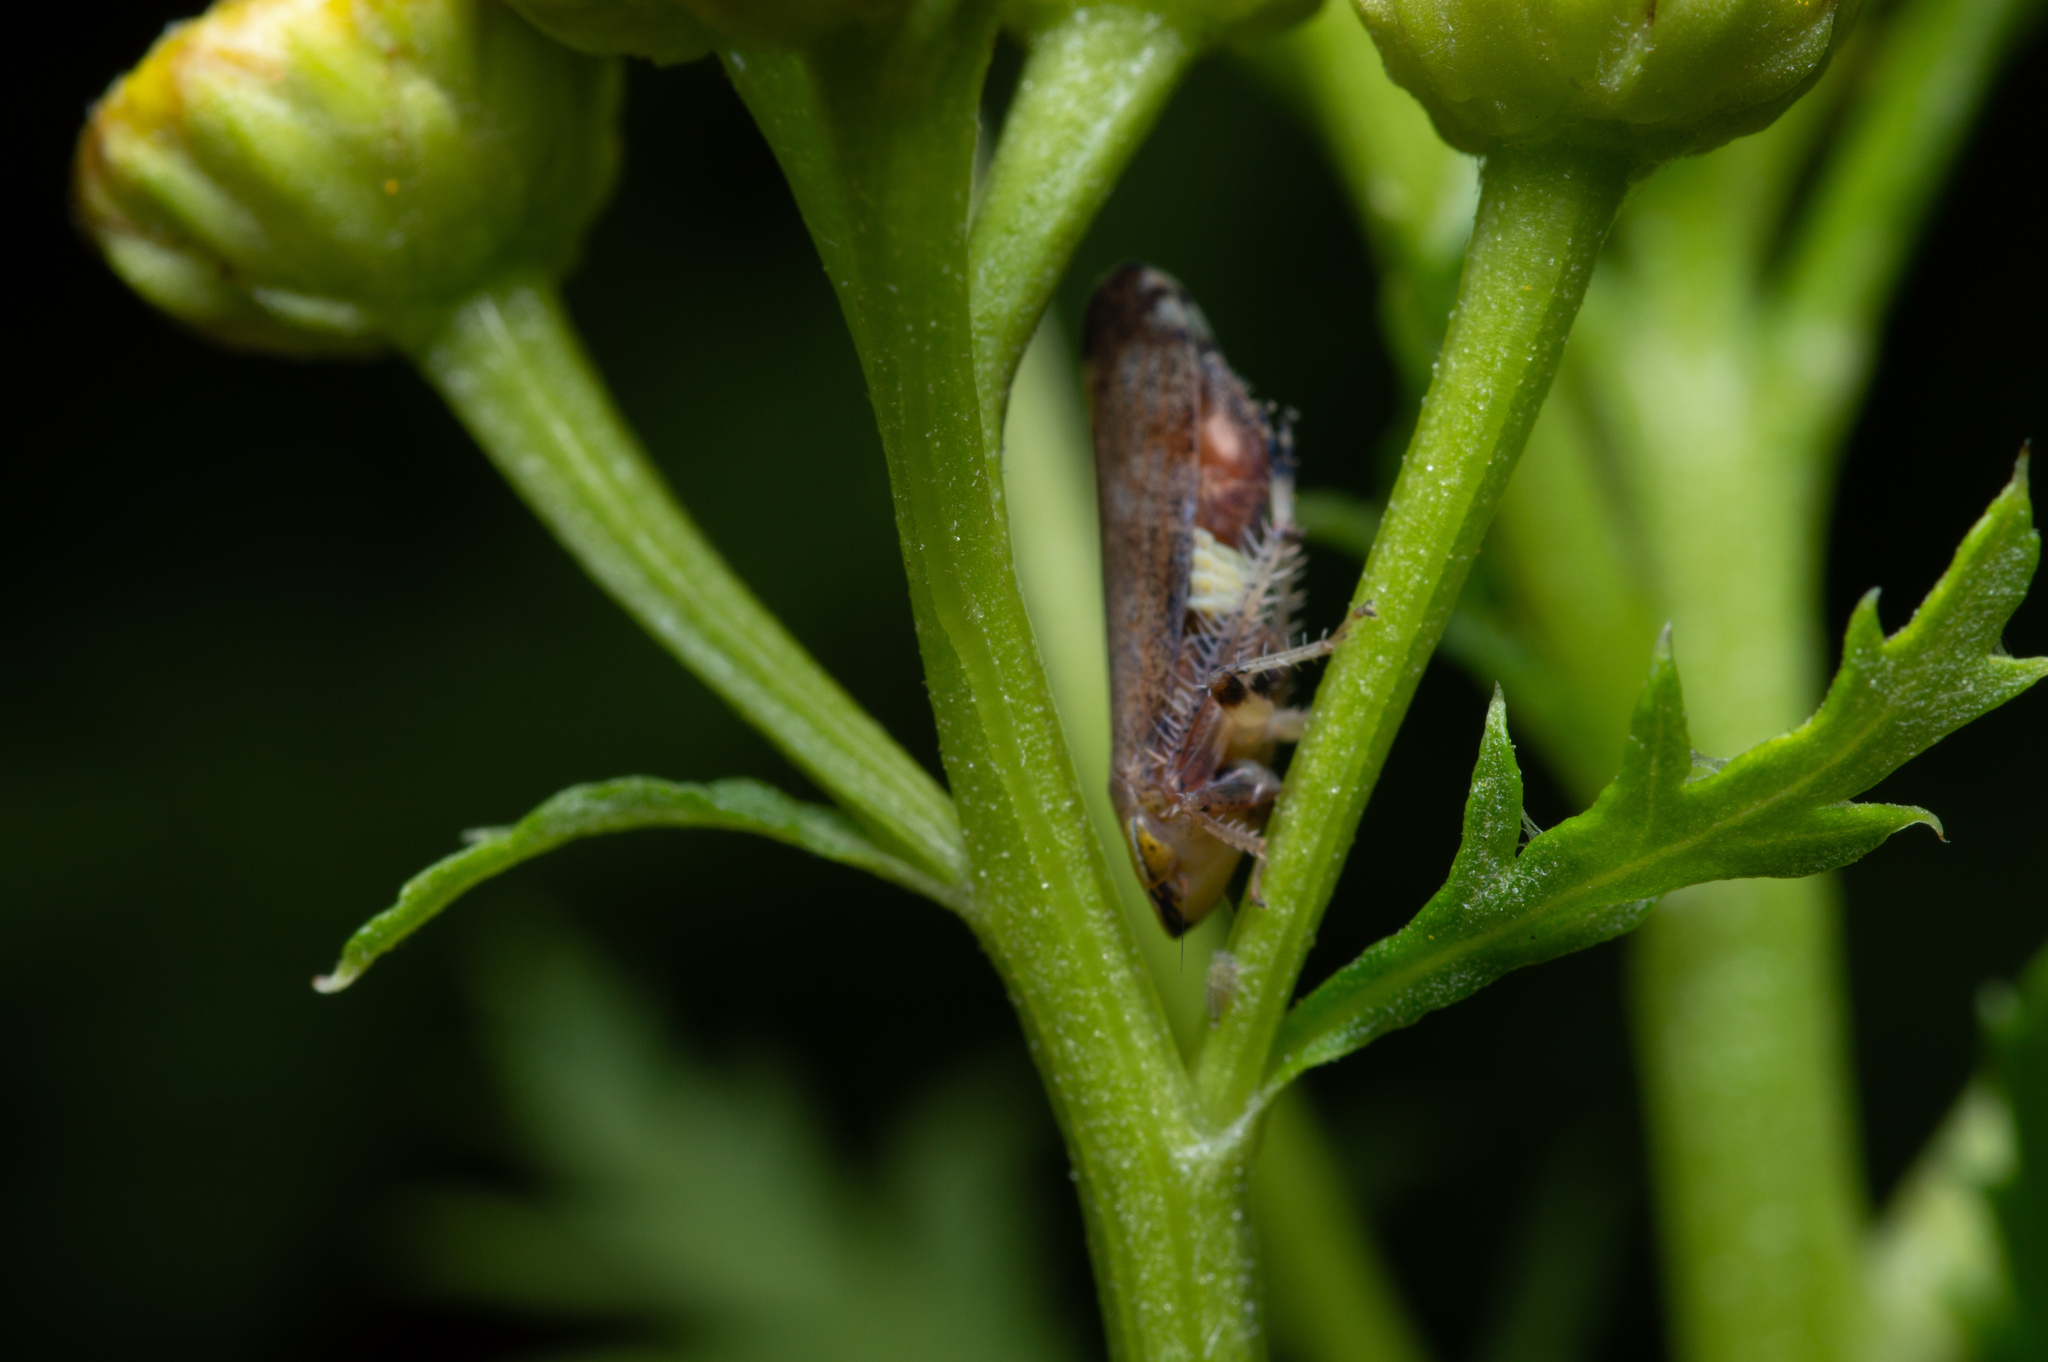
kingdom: Animalia
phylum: Arthropoda
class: Insecta
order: Hemiptera
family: Cicadellidae
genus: Fieberiella
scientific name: Fieberiella florii
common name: Flor’s leafhopper
